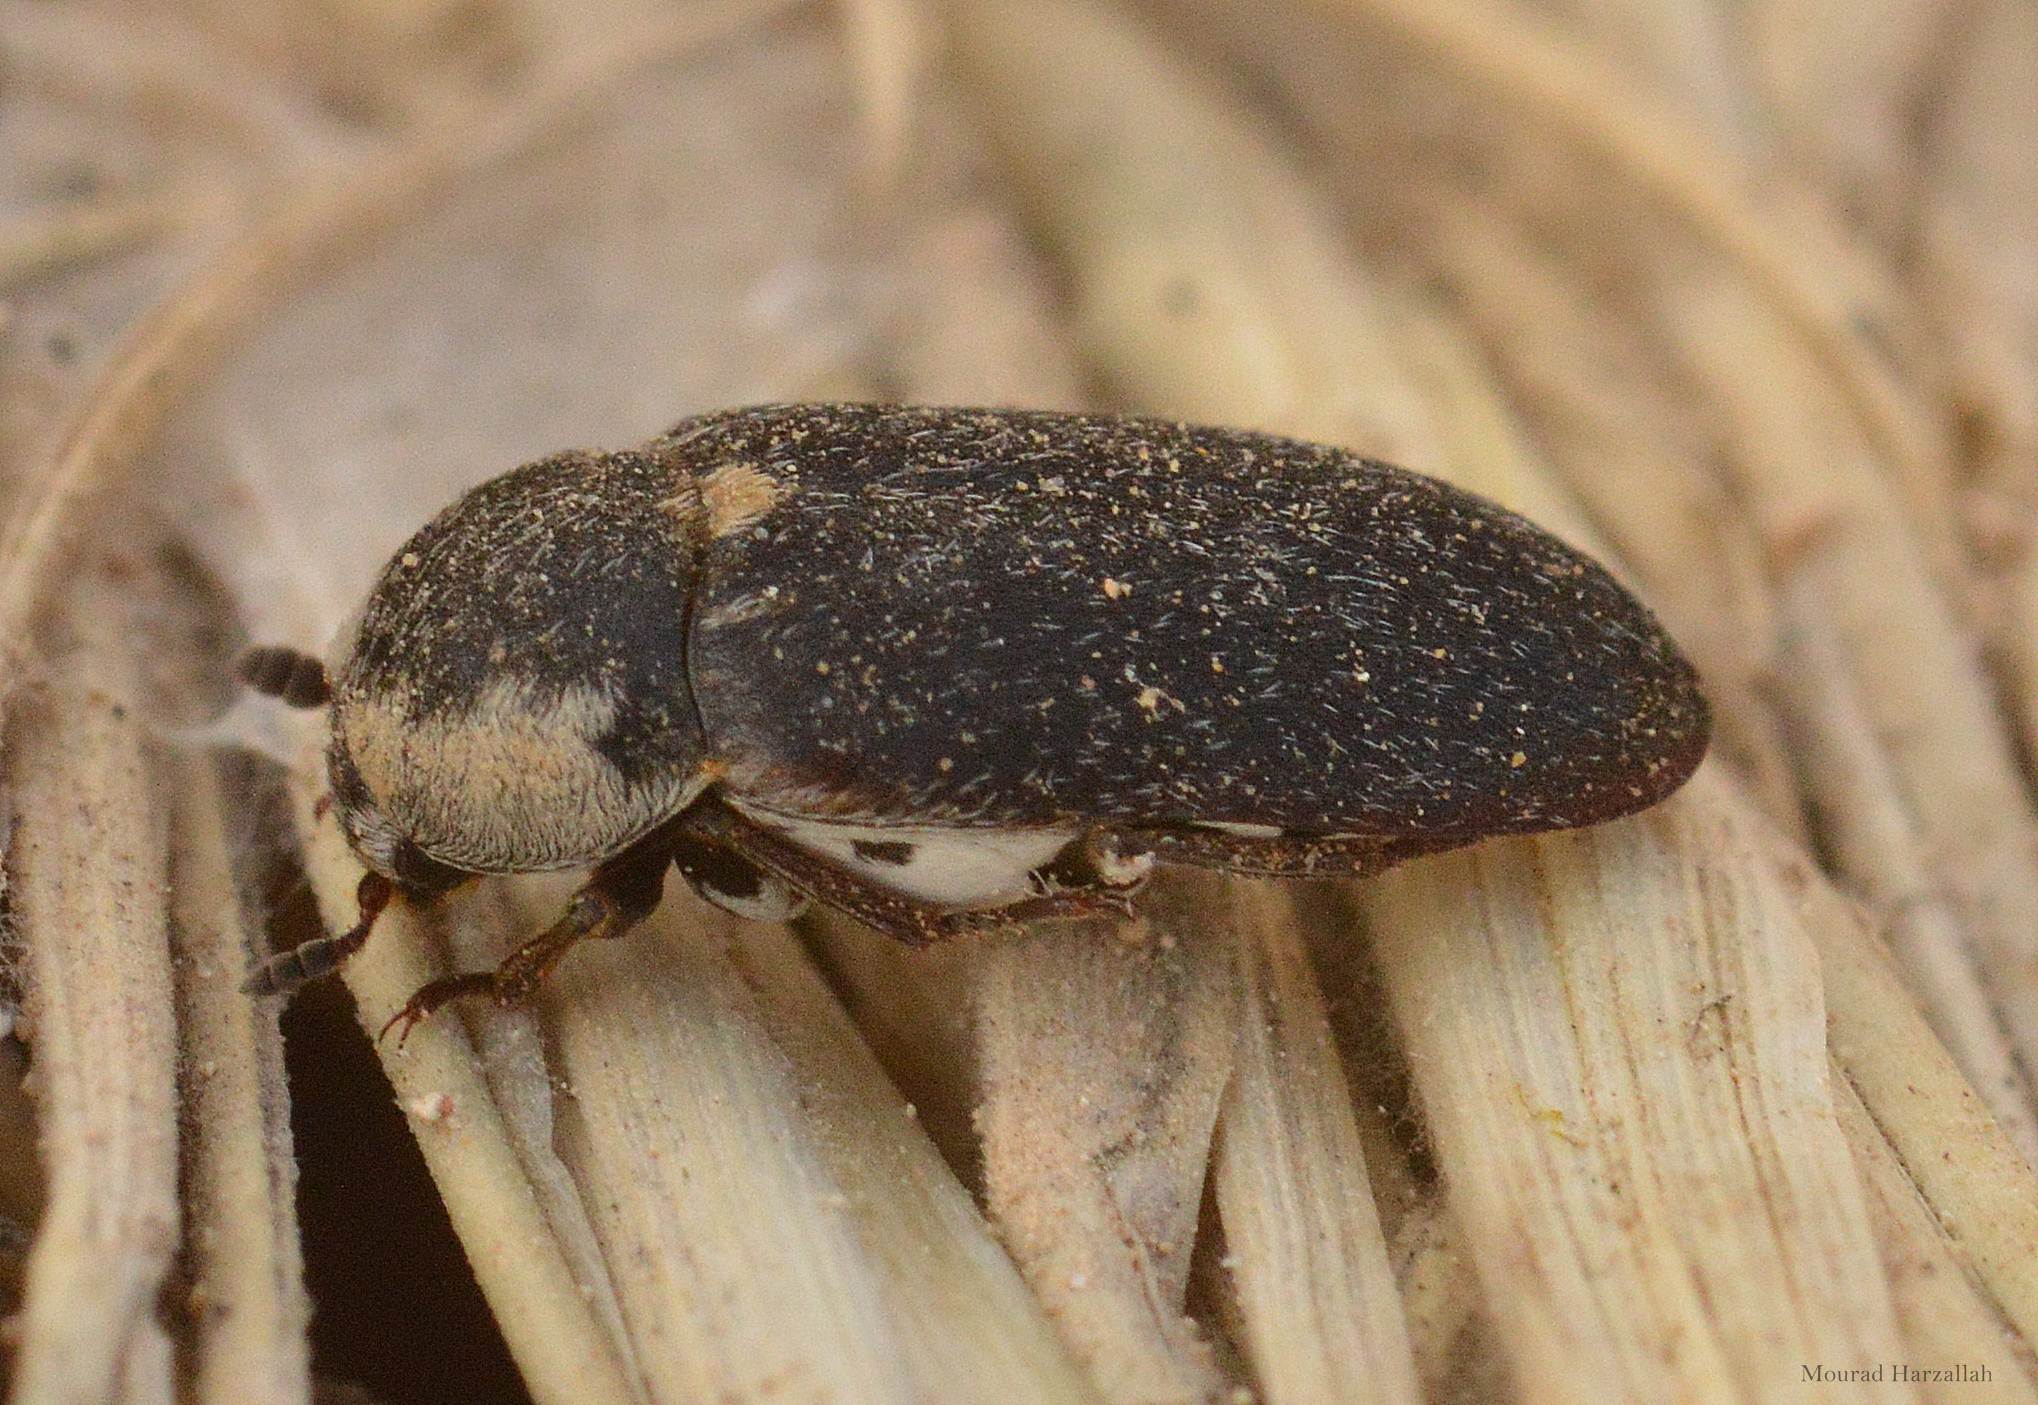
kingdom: Animalia
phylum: Arthropoda
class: Insecta
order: Coleoptera
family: Dermestidae
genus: Dermestes
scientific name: Dermestes frischi
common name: Frisch's carpet beetle
